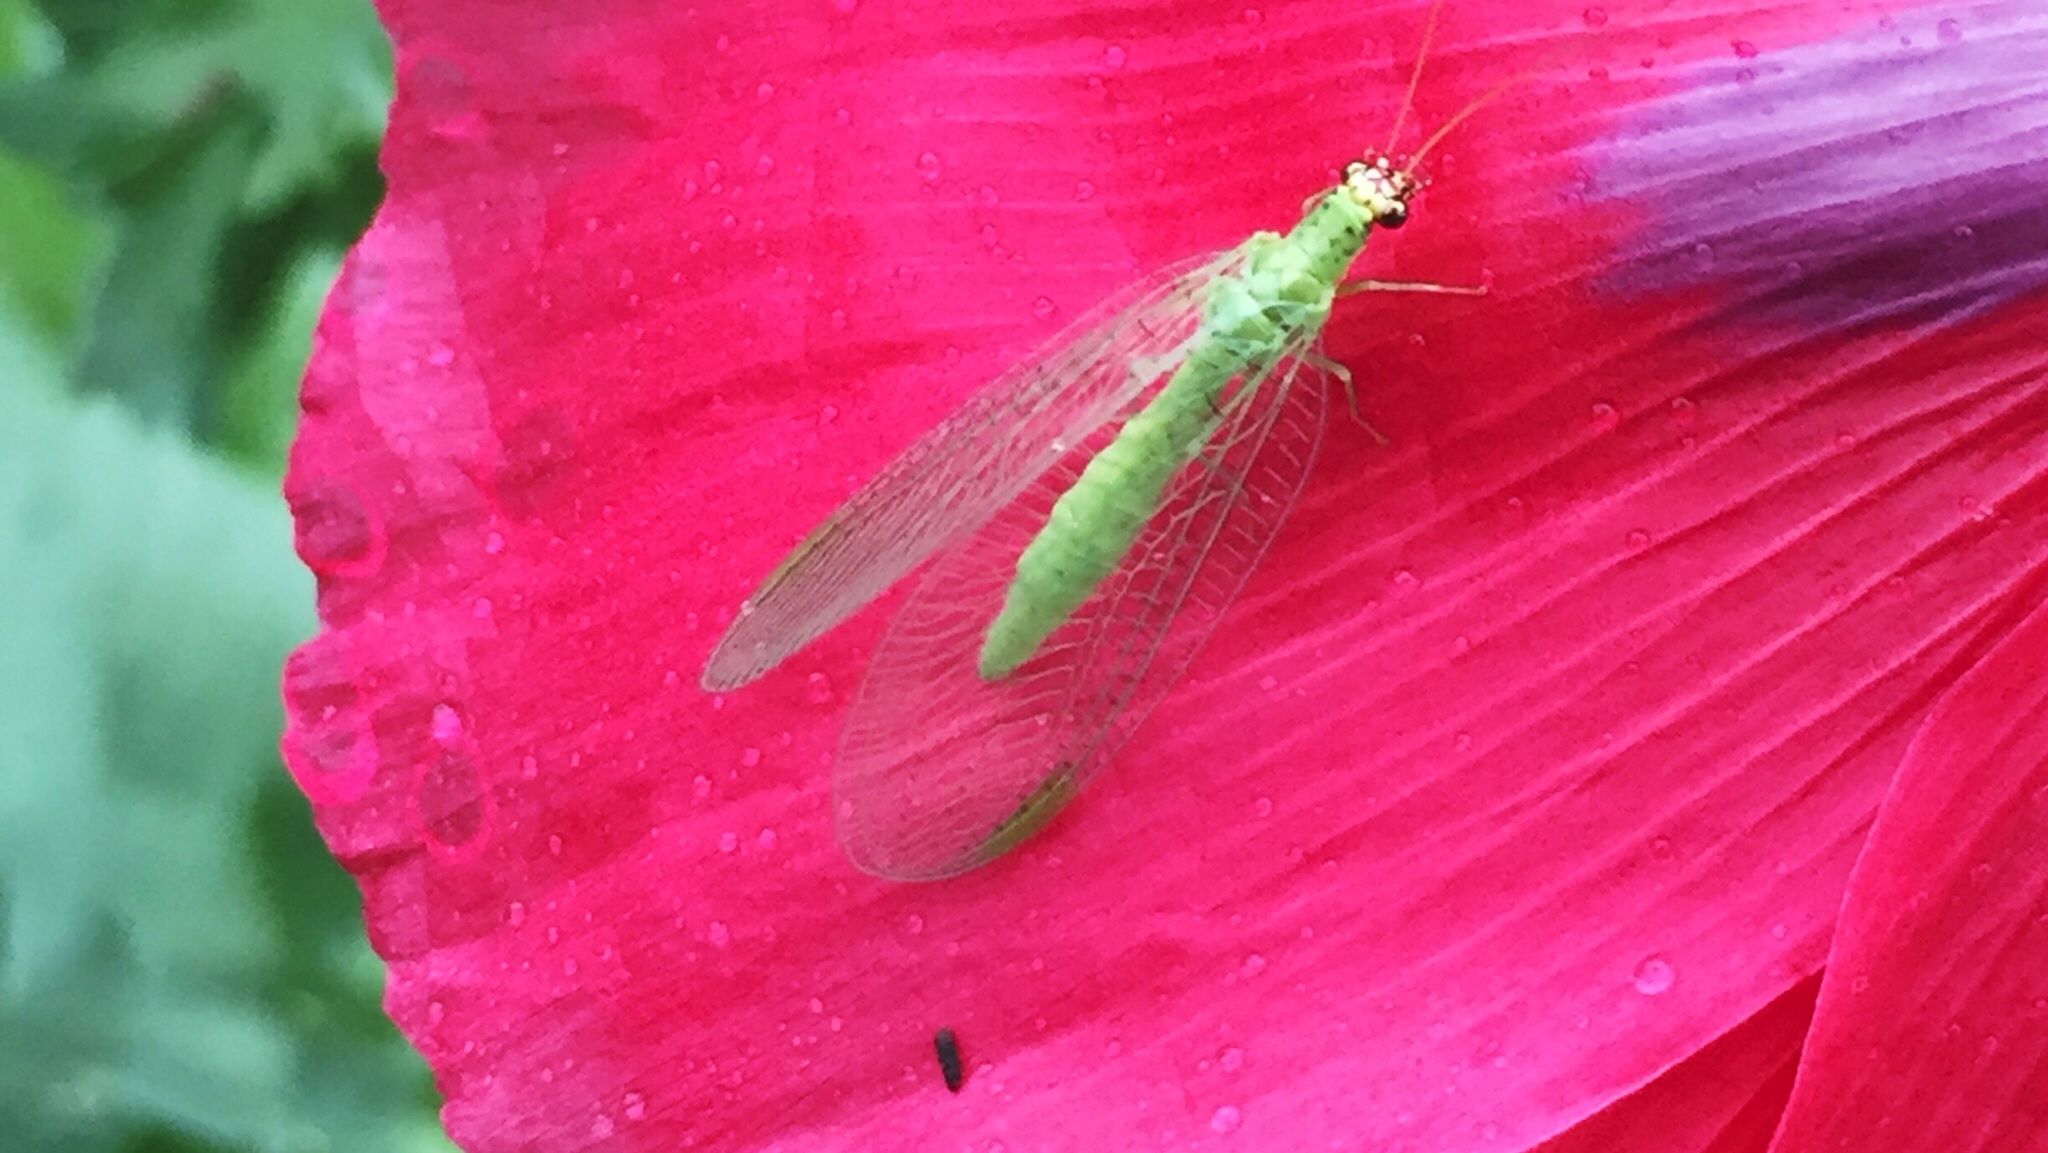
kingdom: Animalia
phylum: Arthropoda
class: Insecta
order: Neuroptera
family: Chrysopidae
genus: Chrysopa
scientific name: Chrysopa oculata
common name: Golden-eyed lacewing
